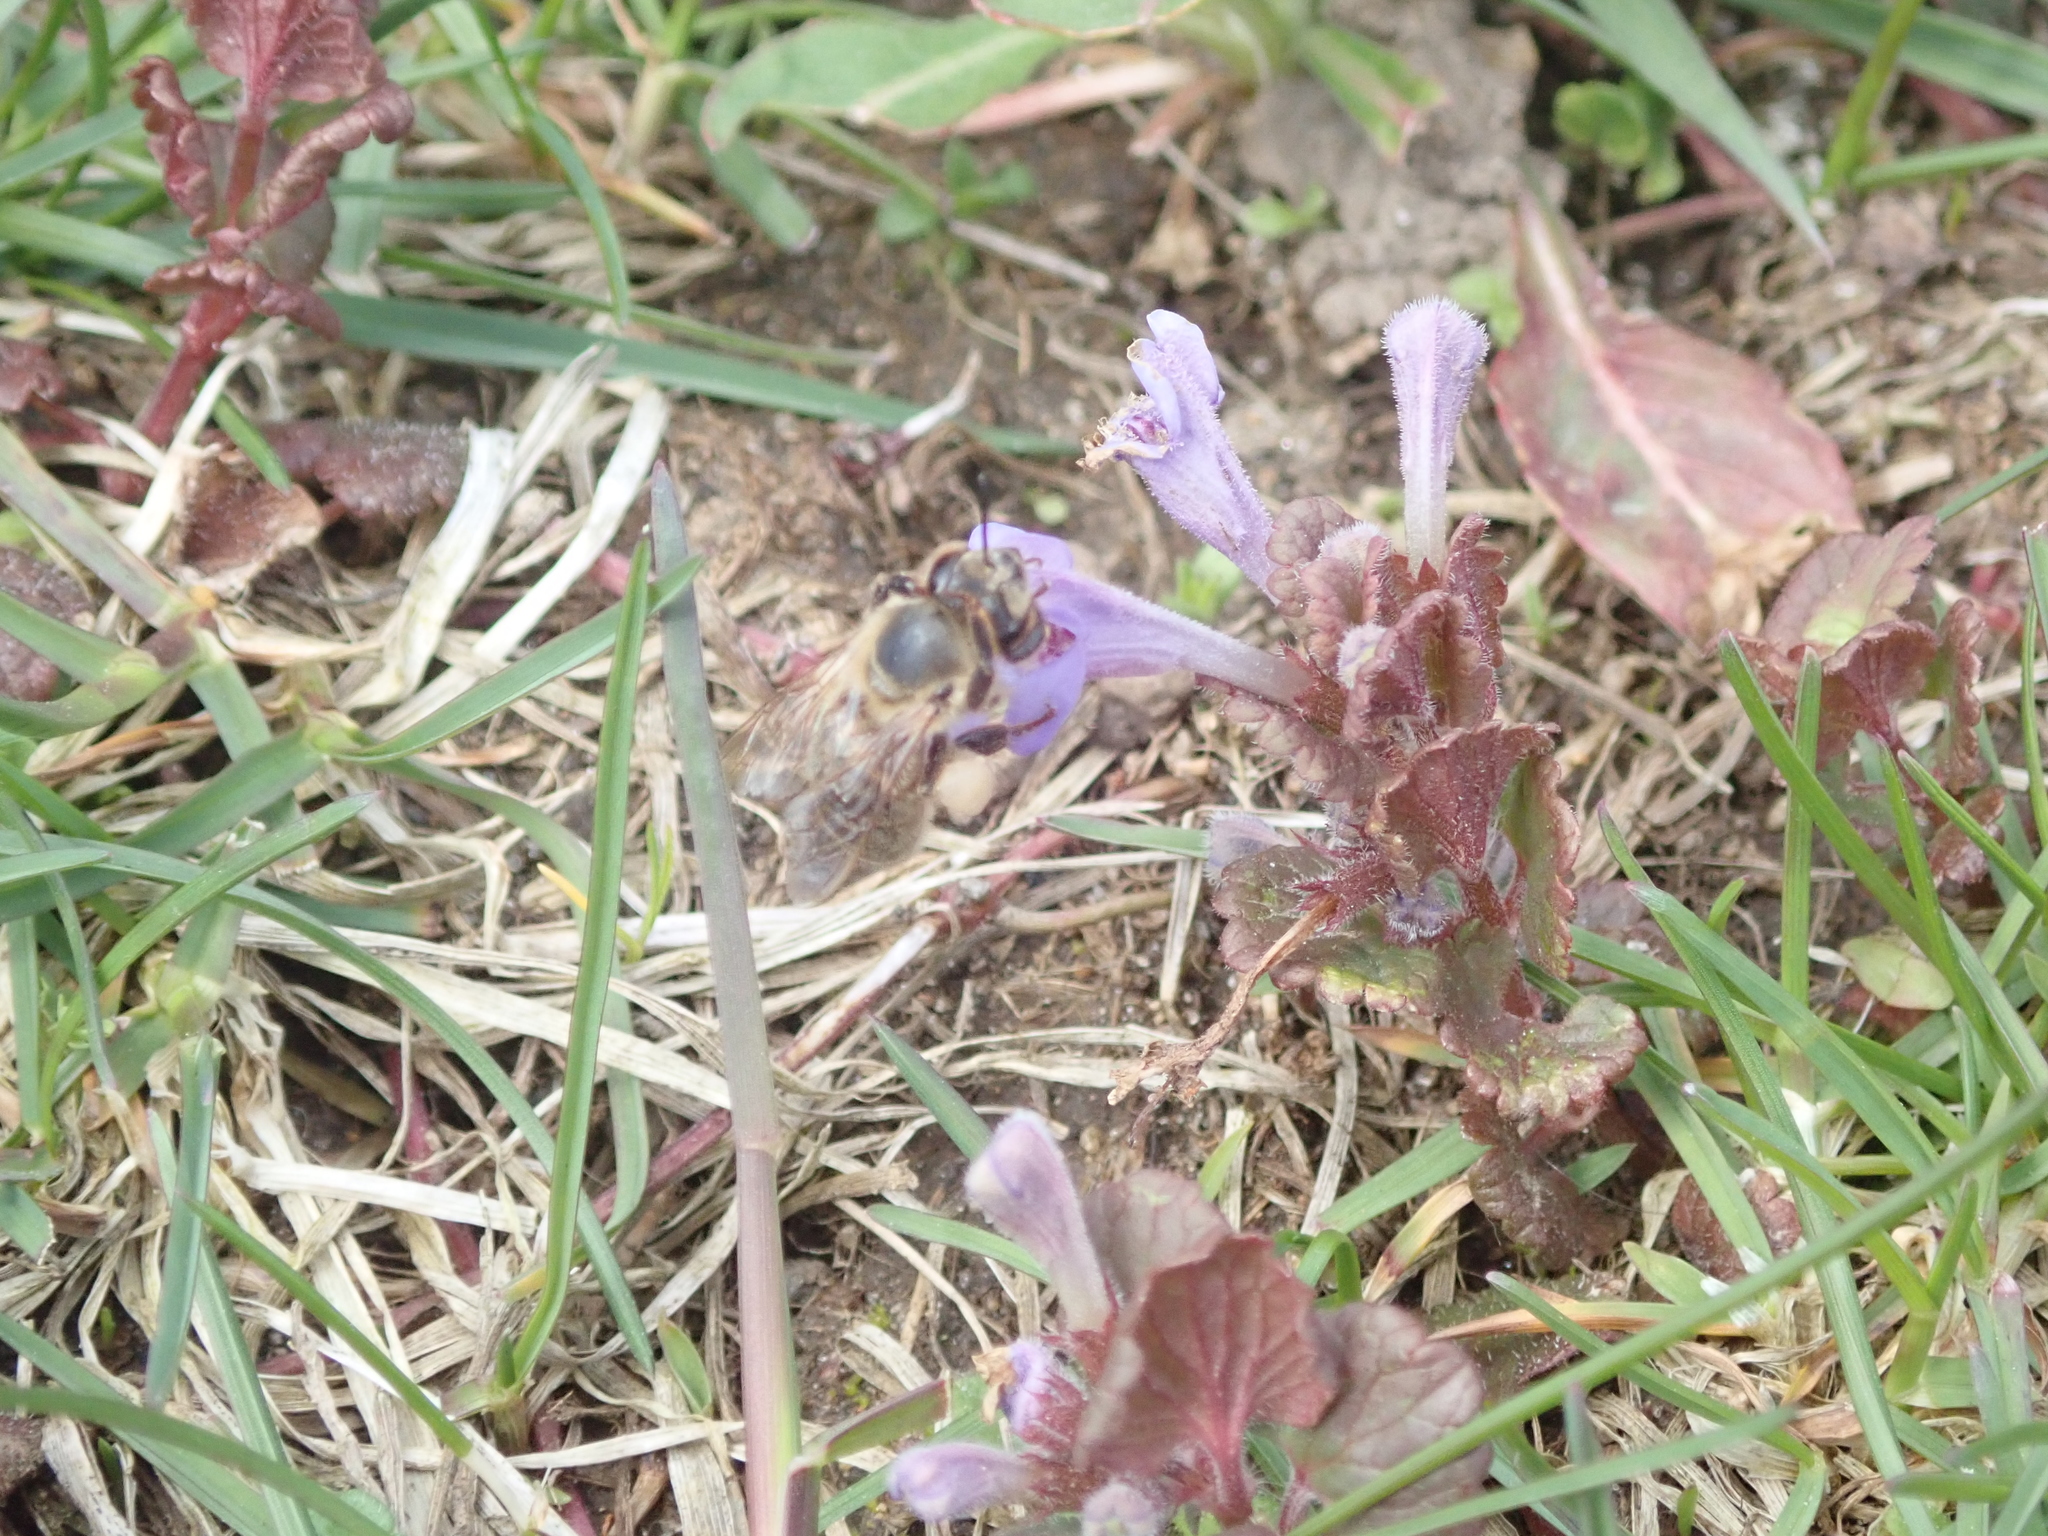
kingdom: Animalia
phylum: Arthropoda
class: Insecta
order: Hymenoptera
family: Apidae
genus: Apis
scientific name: Apis mellifera
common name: Honey bee
